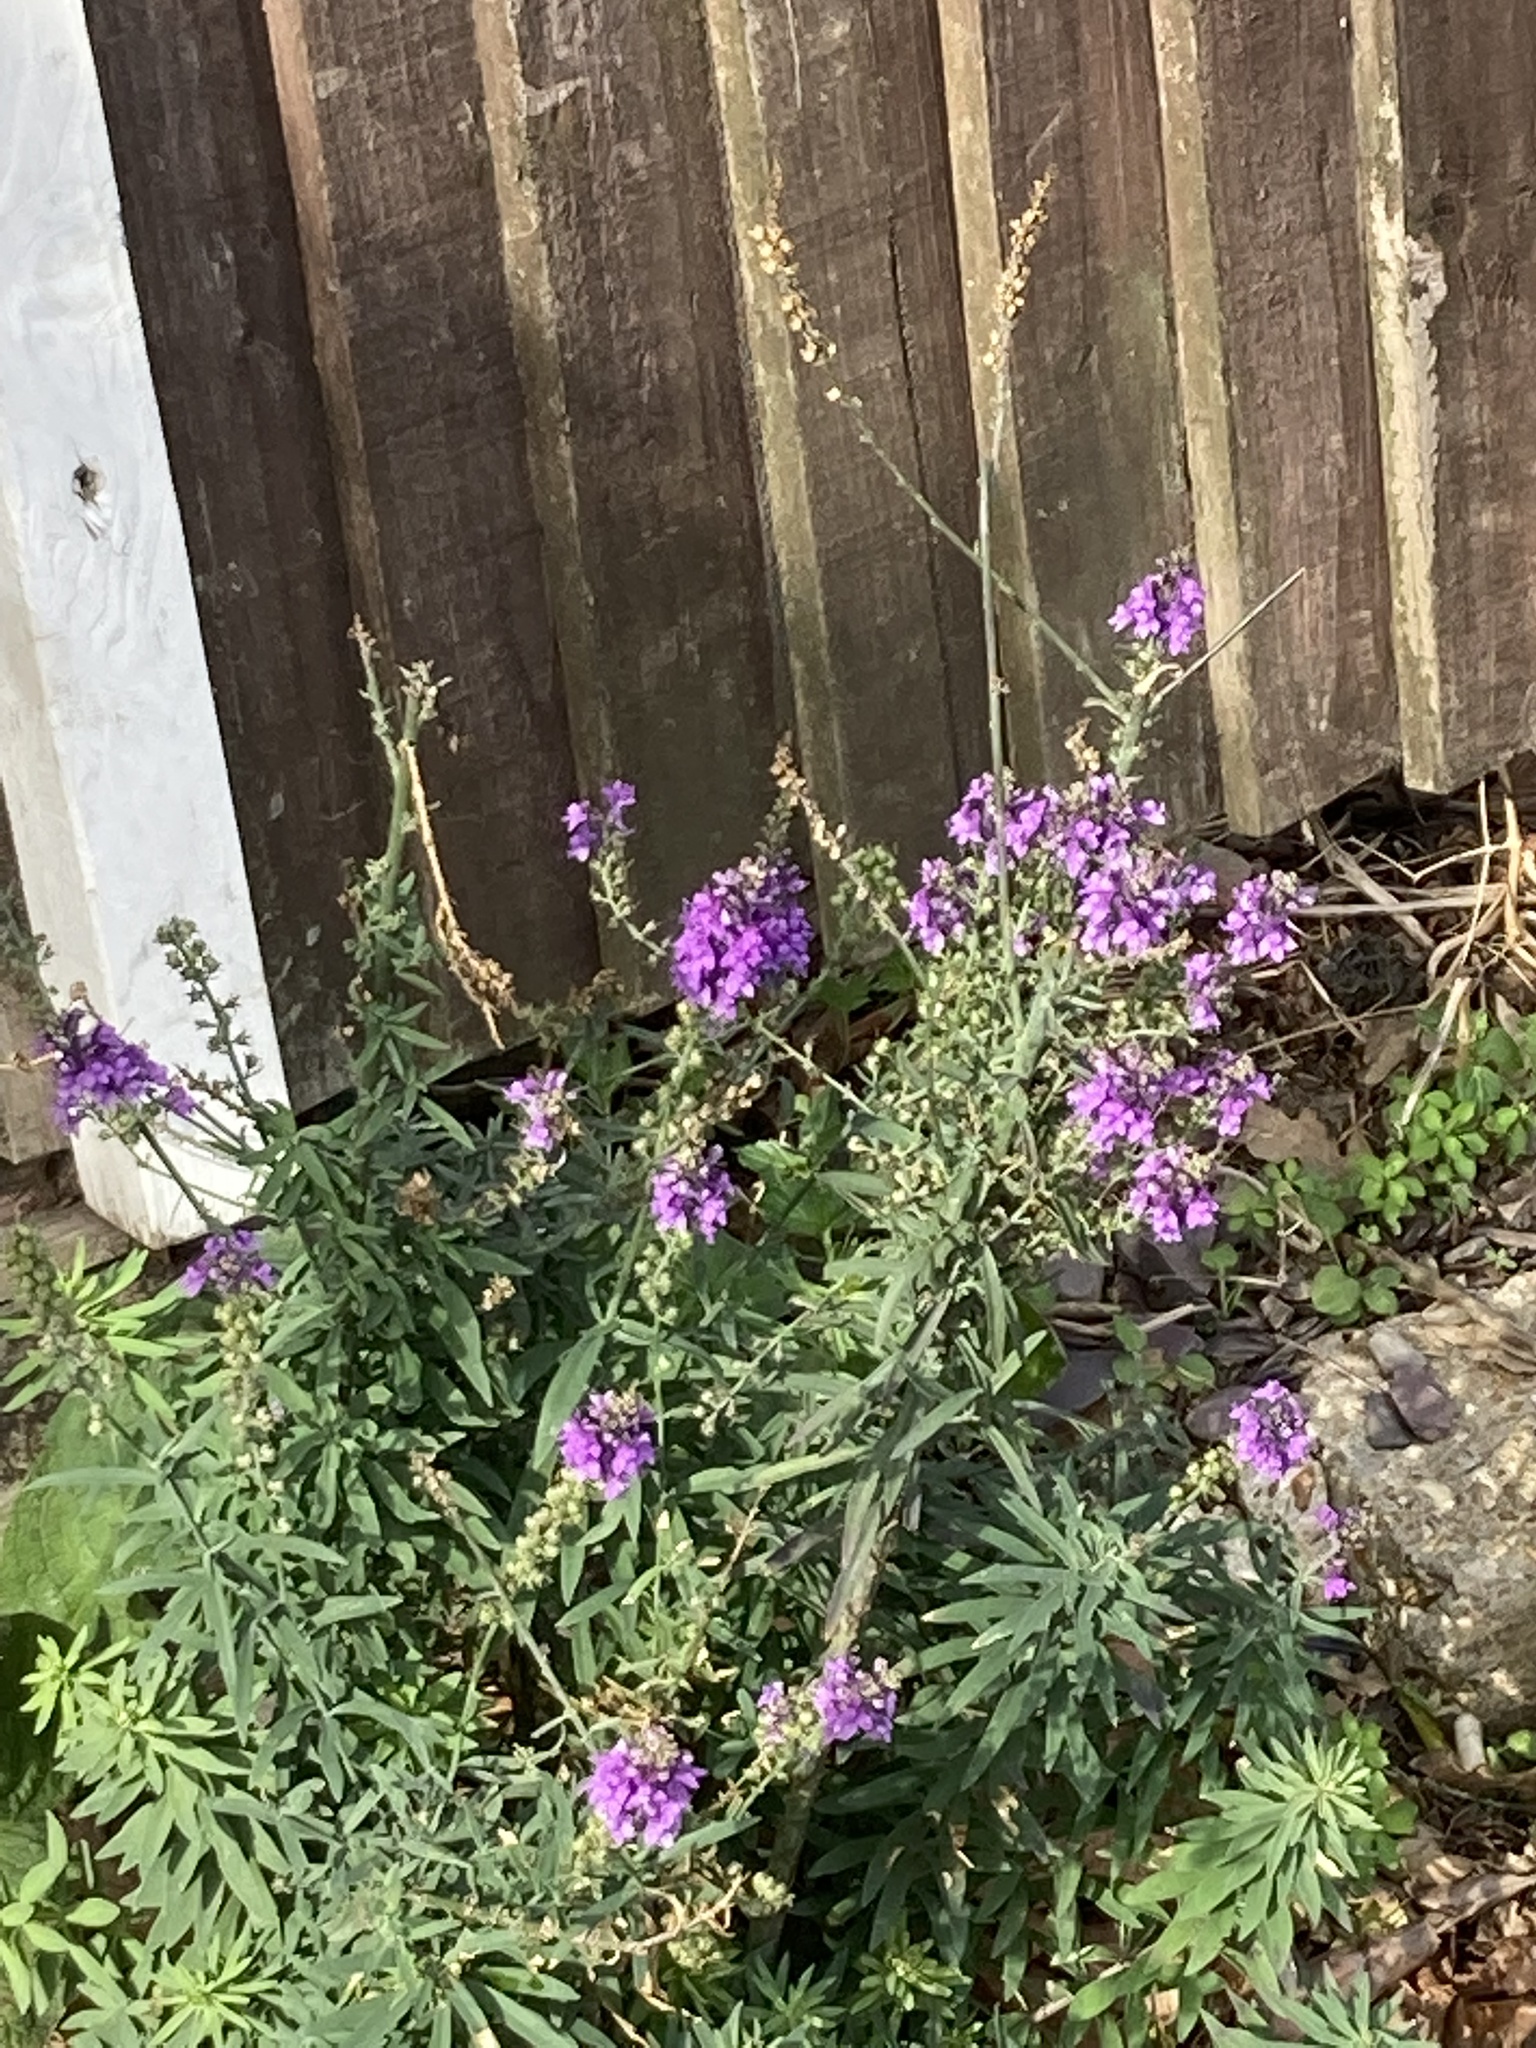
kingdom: Plantae
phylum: Tracheophyta
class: Magnoliopsida
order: Lamiales
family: Plantaginaceae
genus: Linaria
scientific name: Linaria purpurea
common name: Purple toadflax
